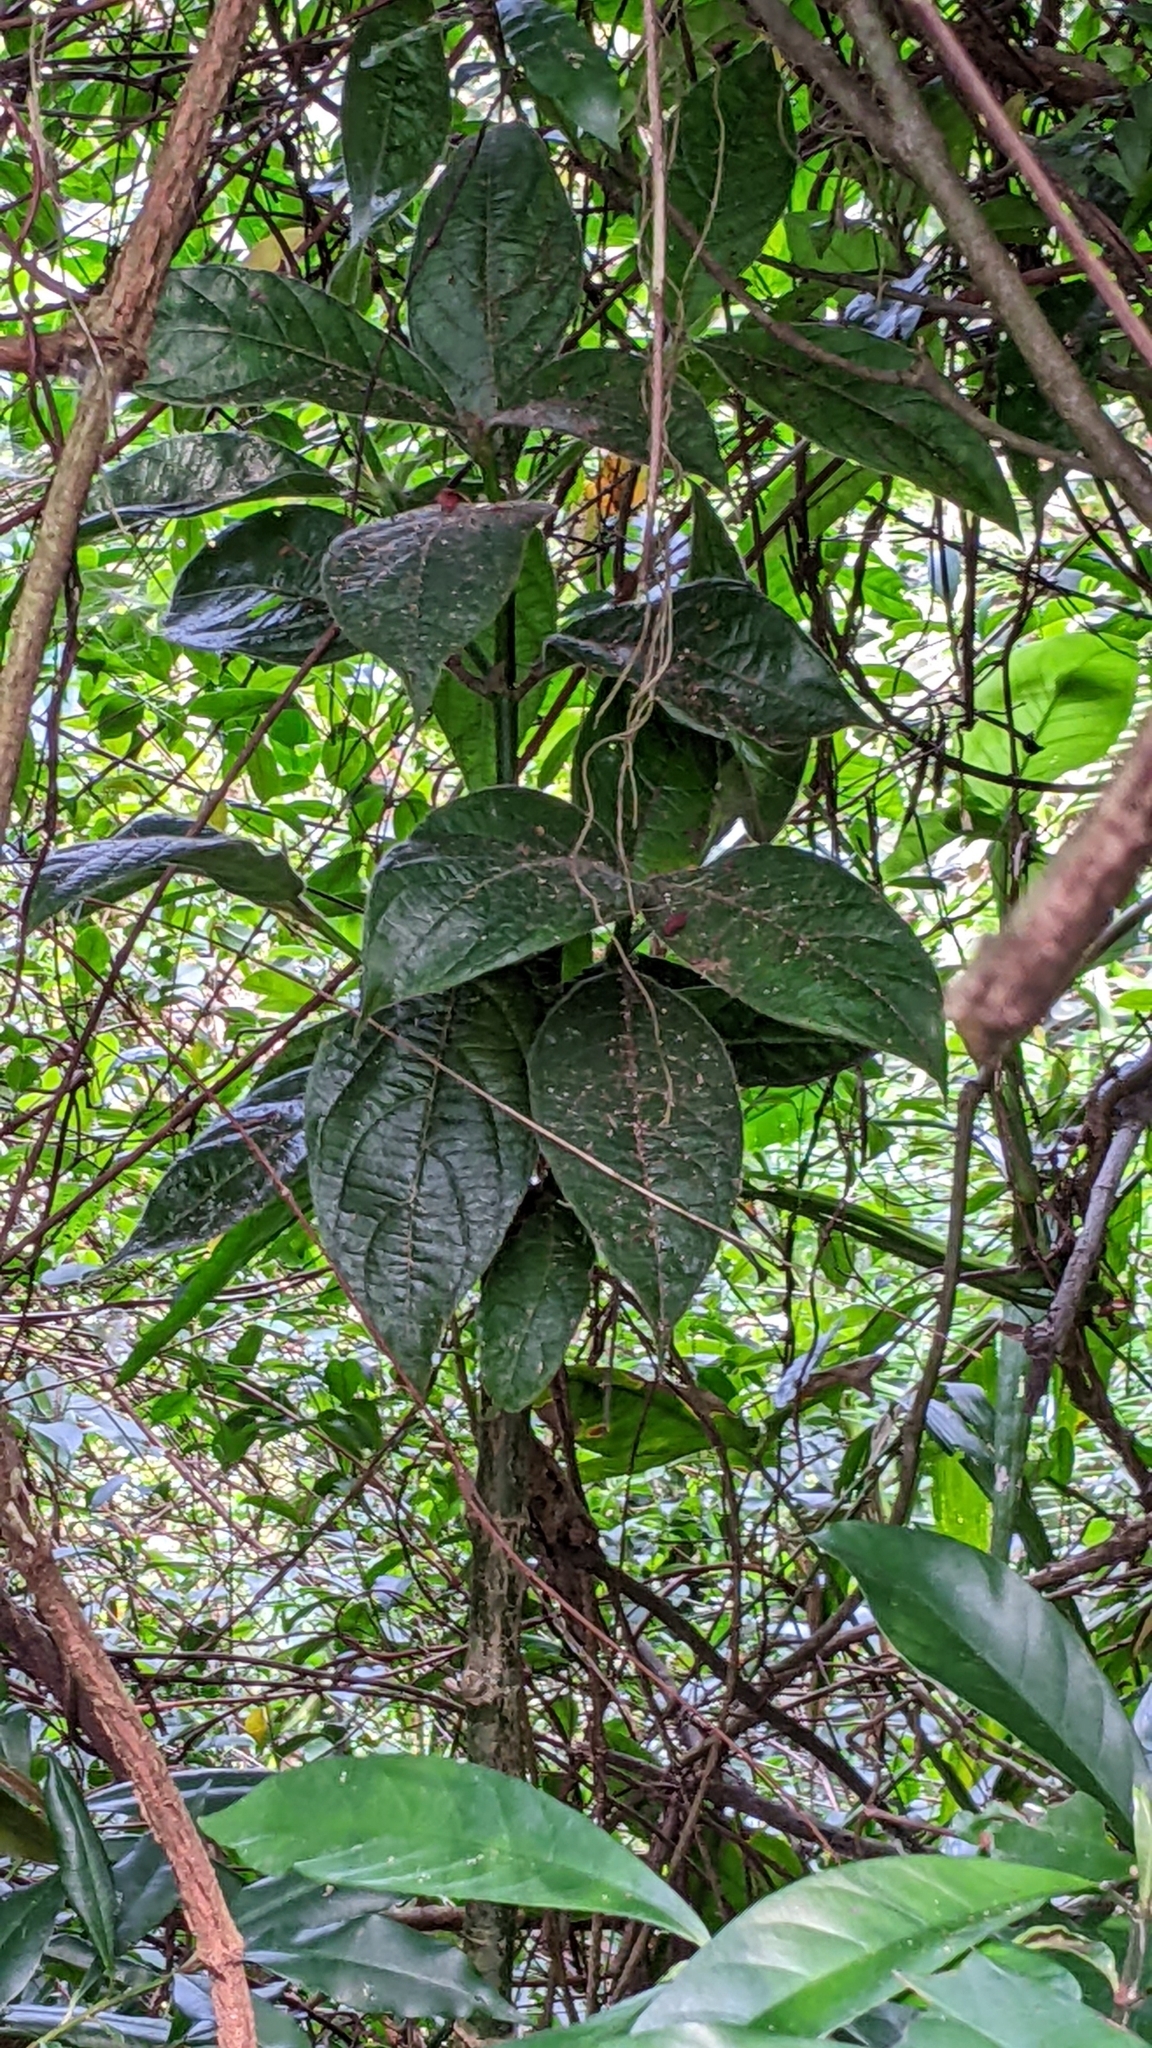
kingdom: Plantae
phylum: Tracheophyta
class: Magnoliopsida
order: Gentianales
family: Rubiaceae
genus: Lasianthus
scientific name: Lasianthus cyanocarpus
